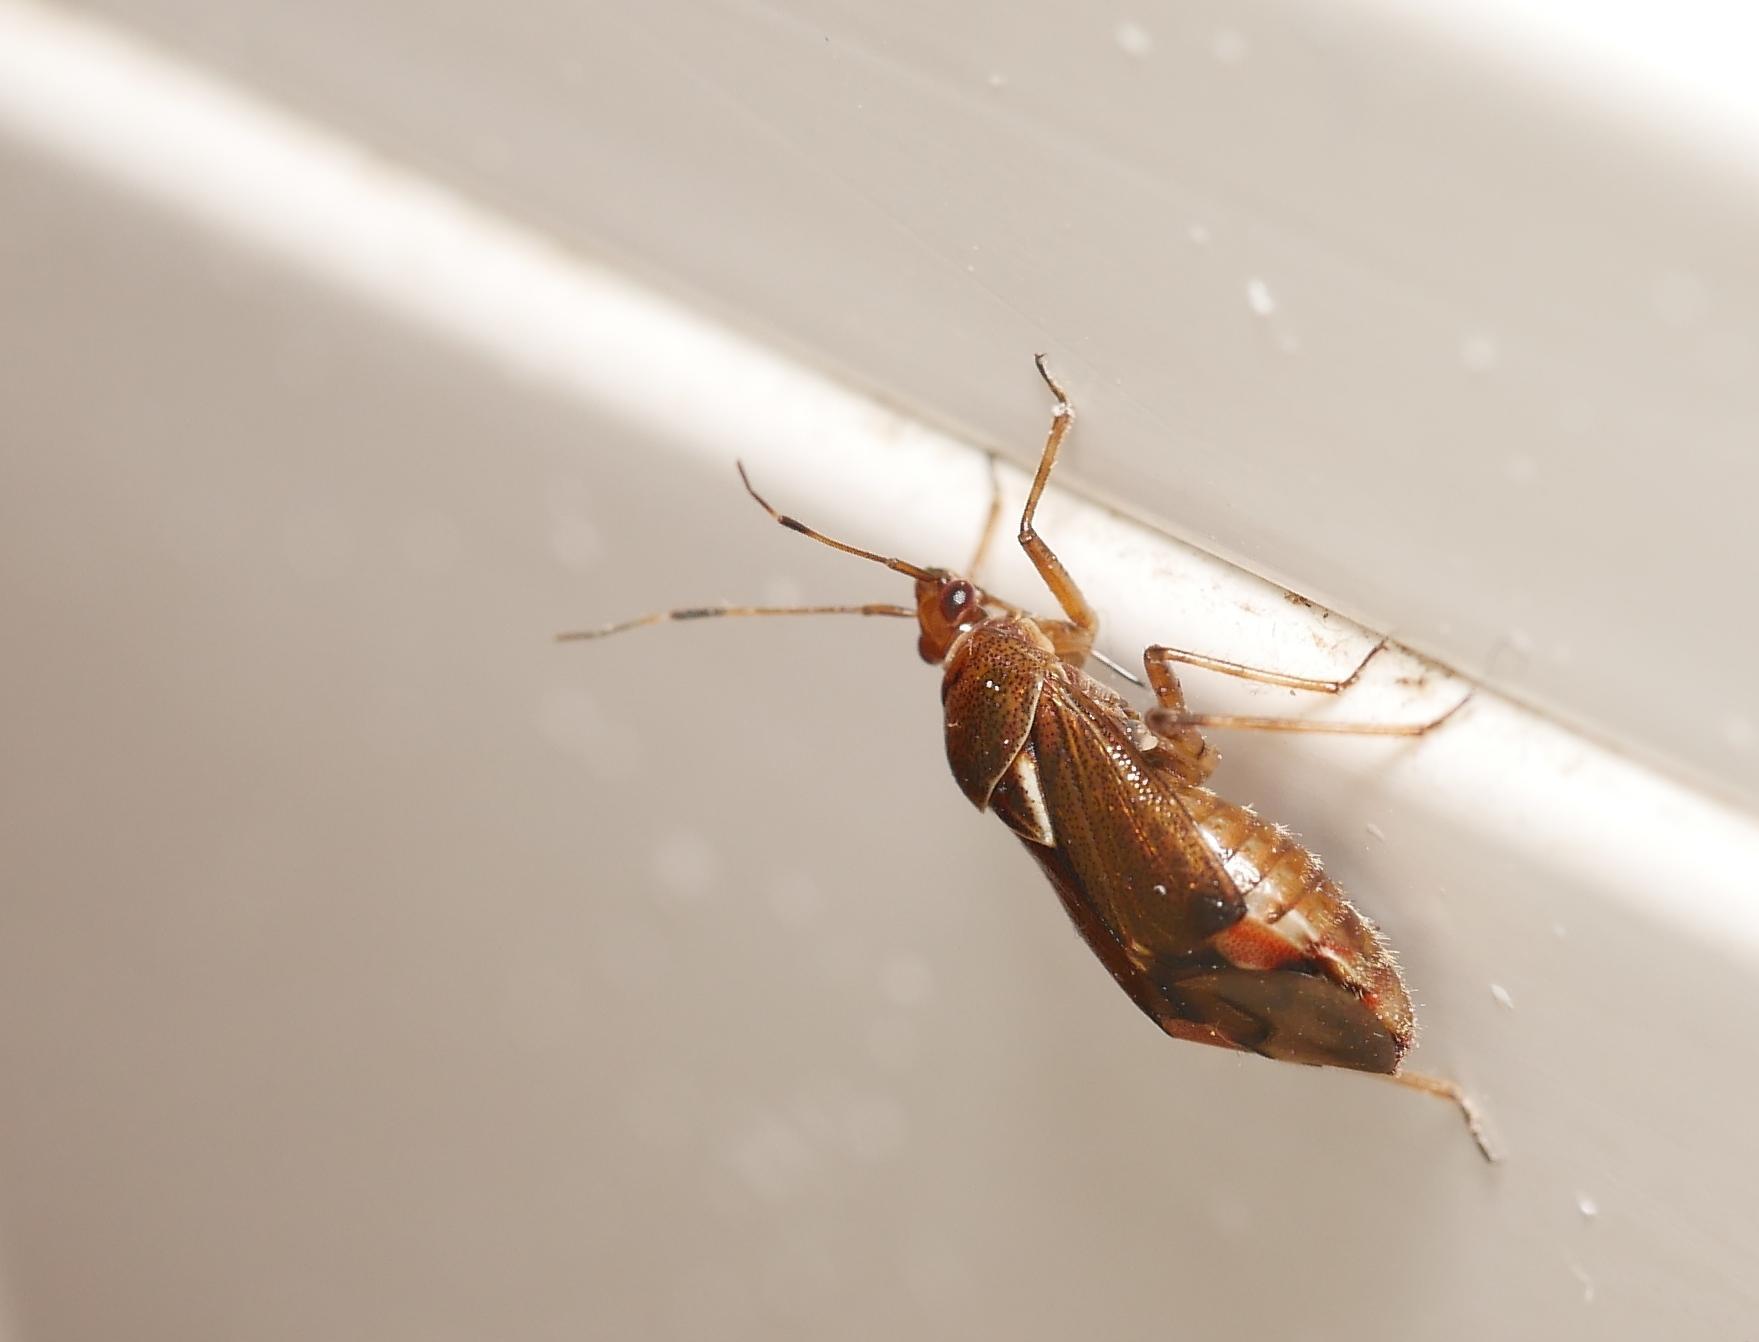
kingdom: Animalia
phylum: Arthropoda
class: Insecta
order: Hemiptera
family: Miridae
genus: Deraeocoris
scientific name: Deraeocoris flavilinea
